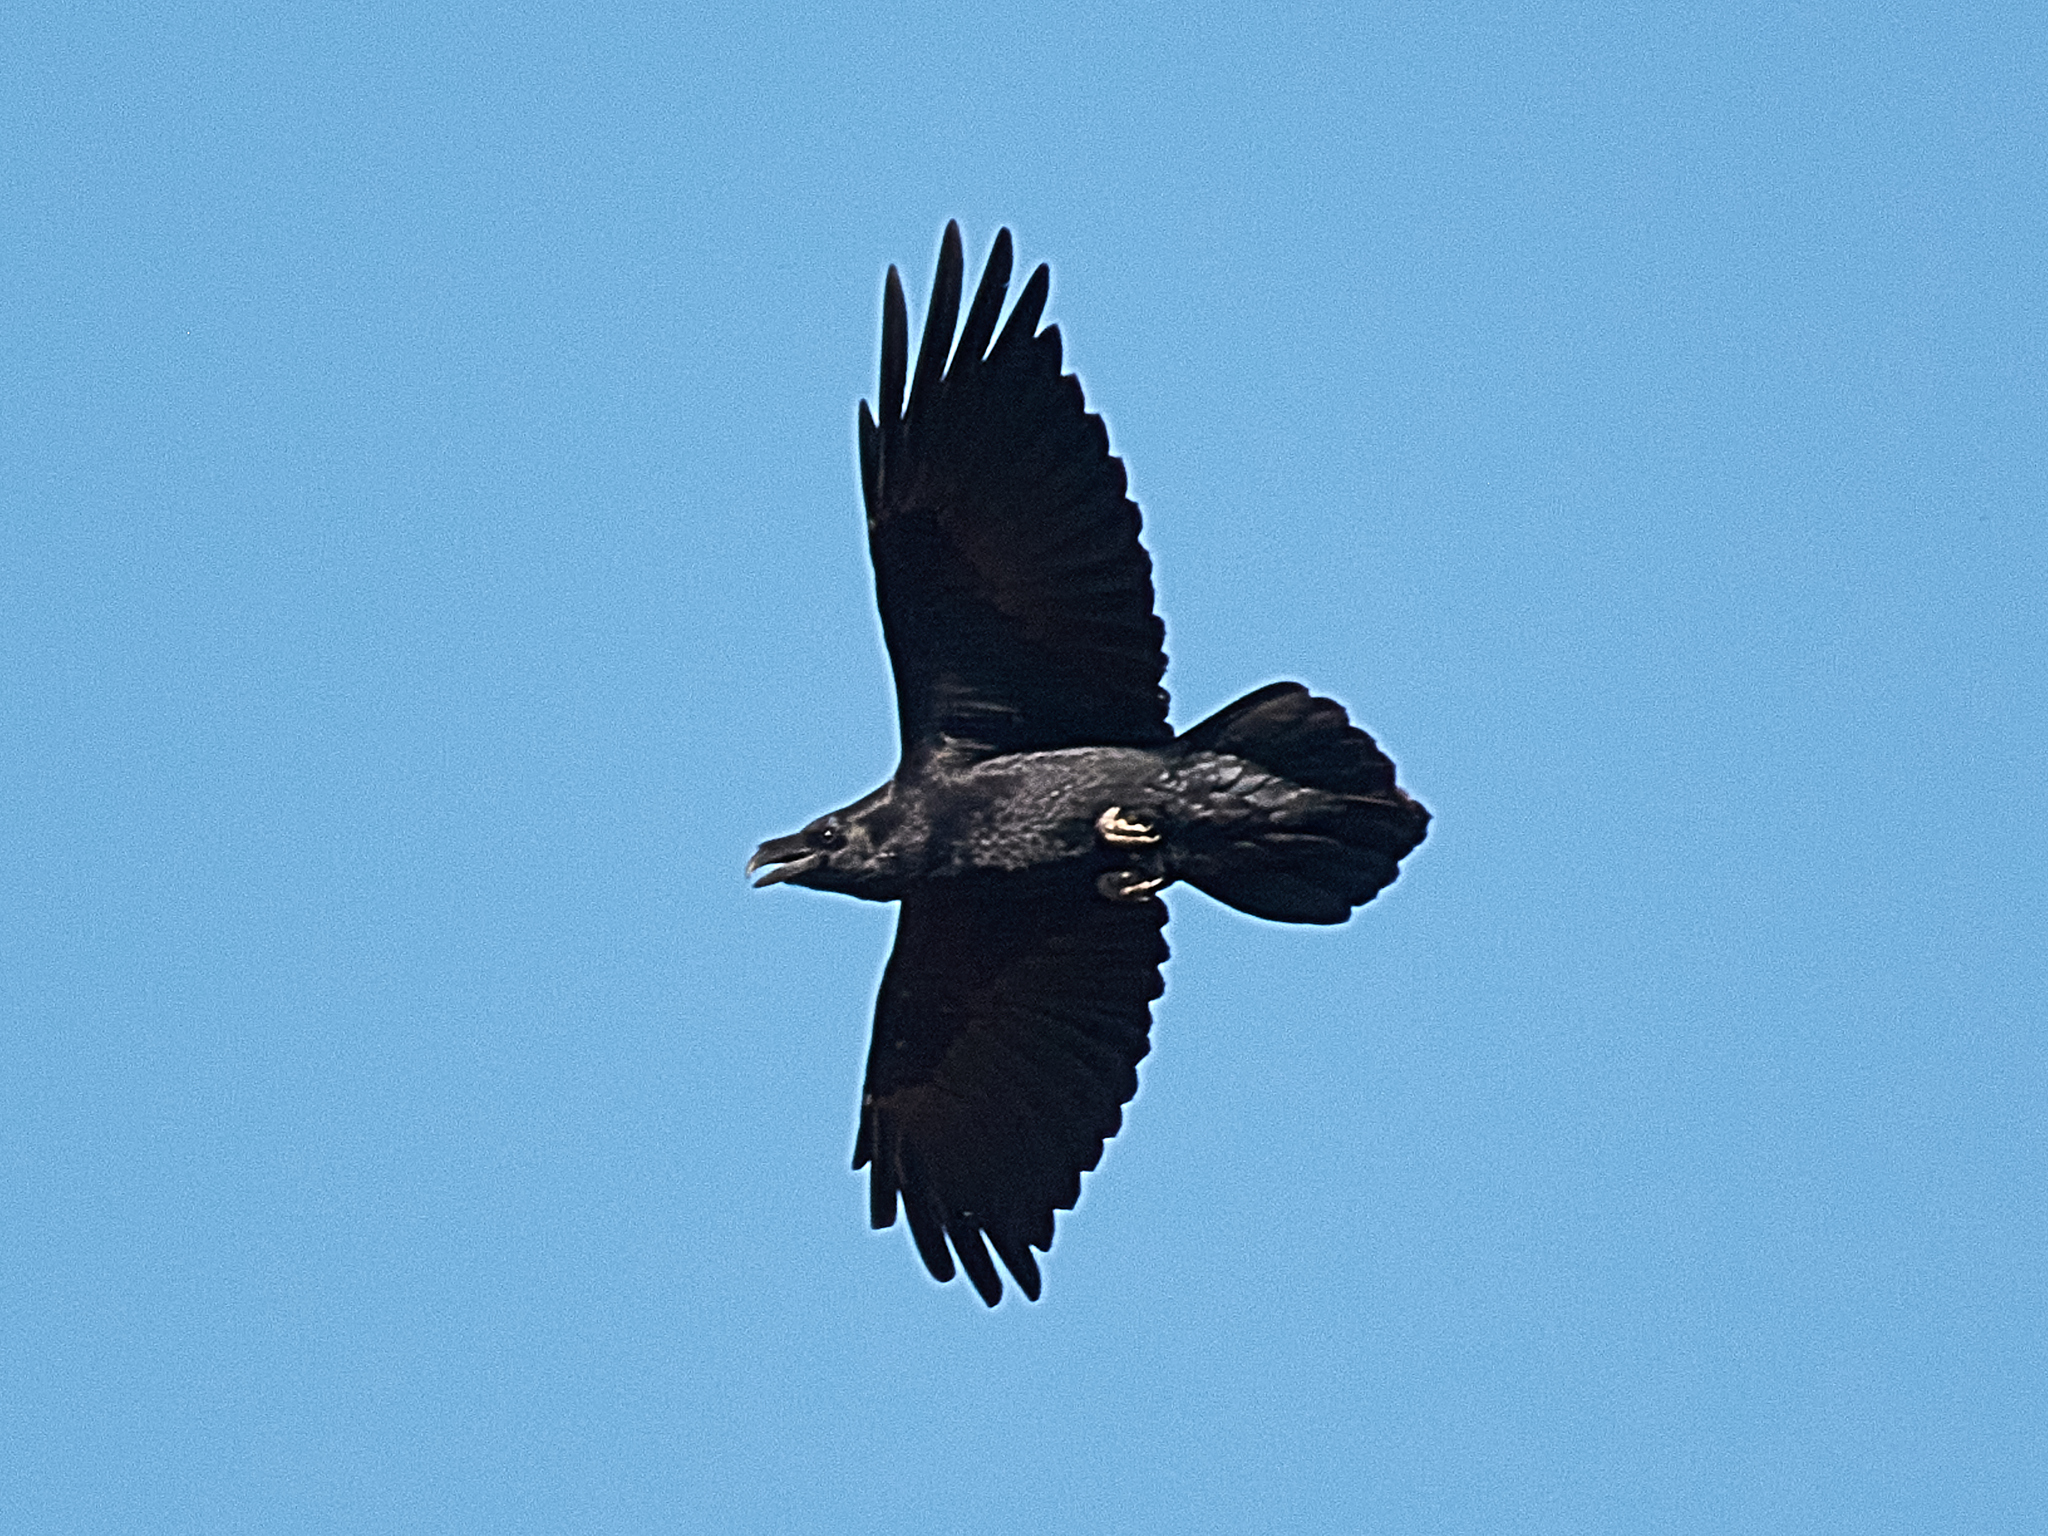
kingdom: Animalia
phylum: Chordata
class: Aves
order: Passeriformes
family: Corvidae
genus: Corvus
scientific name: Corvus corax
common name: Common raven
